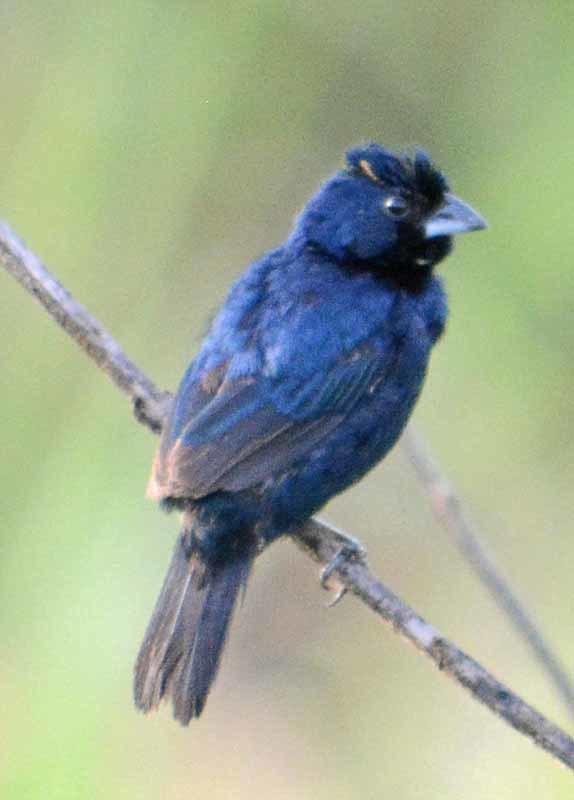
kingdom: Animalia
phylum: Chordata
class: Aves
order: Passeriformes
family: Thraupidae
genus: Volatinia
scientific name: Volatinia jacarina
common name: Blue-black grassquit
